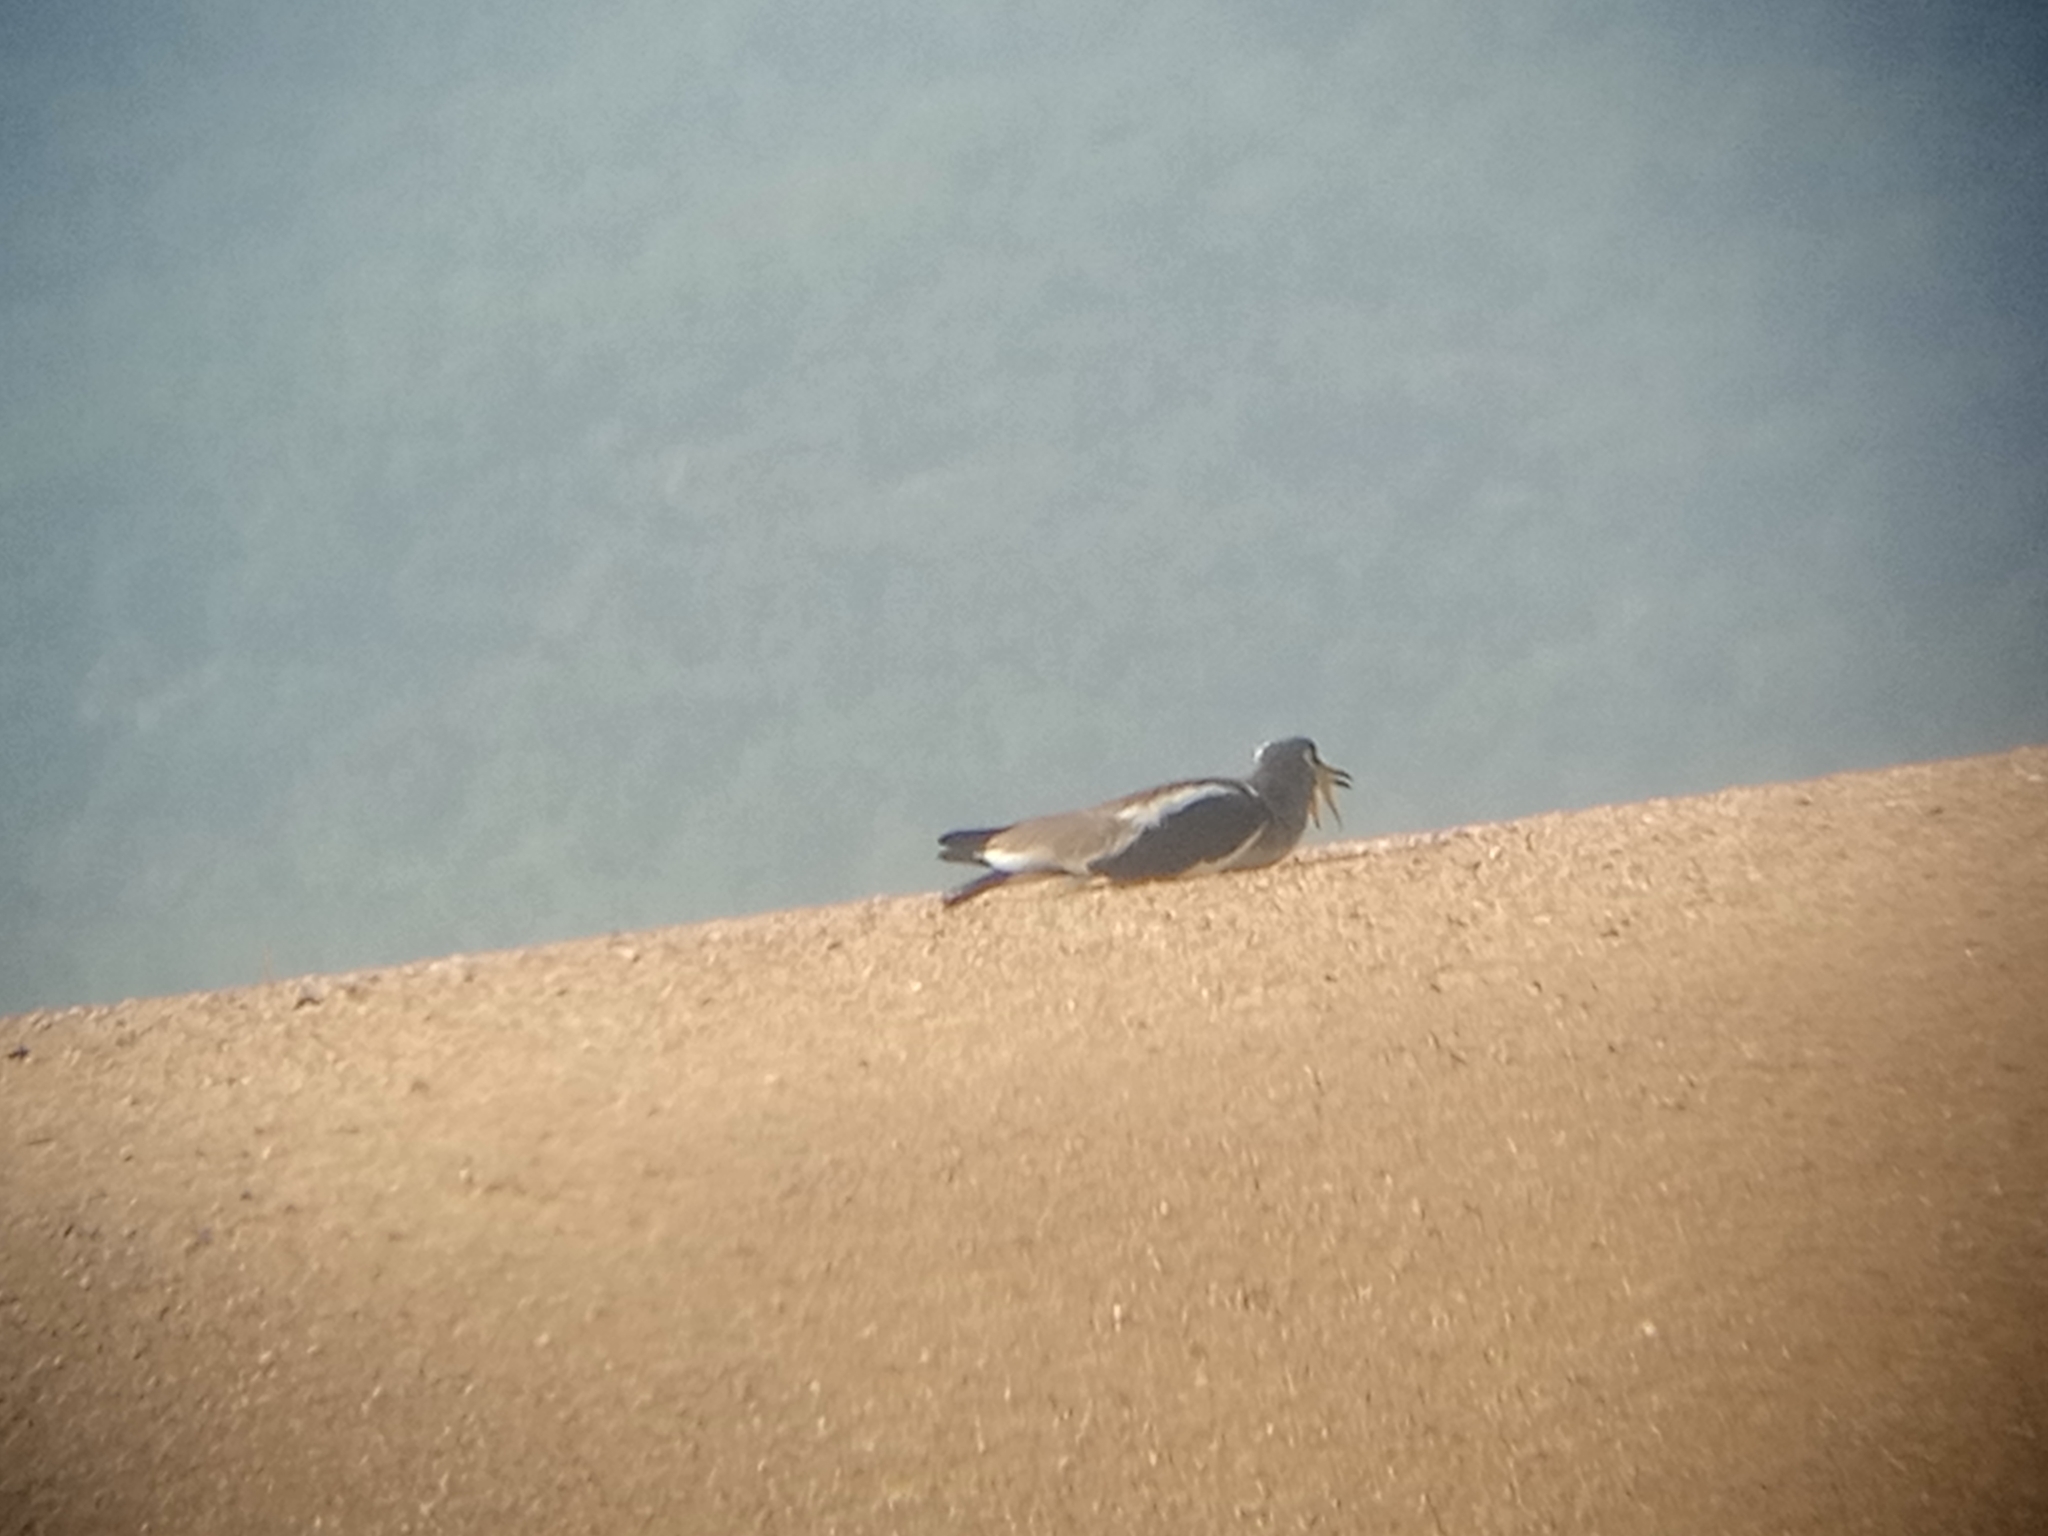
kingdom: Animalia
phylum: Chordata
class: Aves
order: Charadriiformes
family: Charadriidae
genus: Vanellus
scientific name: Vanellus albiceps
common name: White-crowned lapwing
